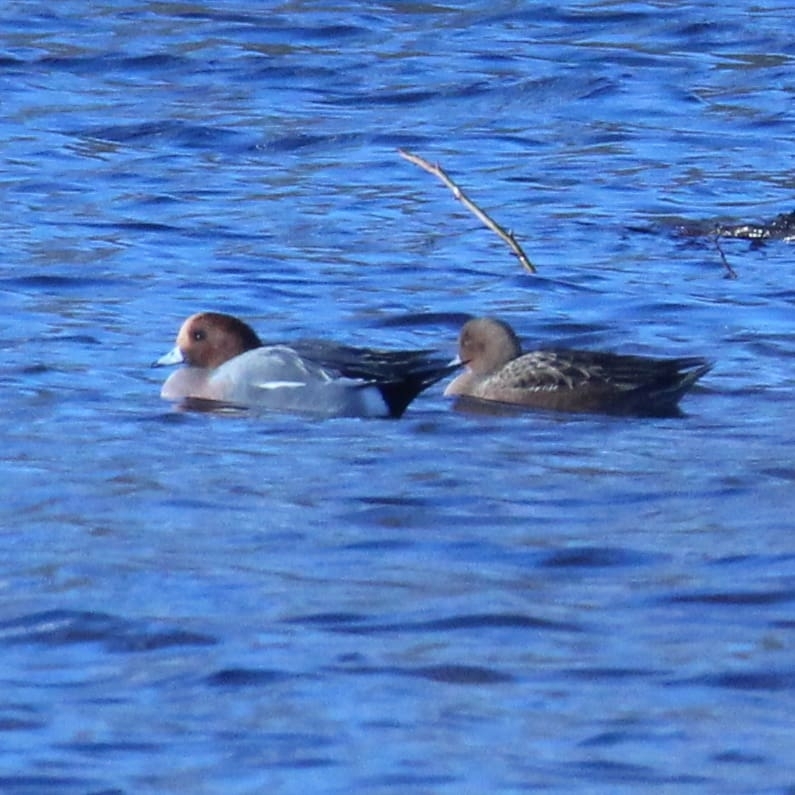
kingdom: Animalia
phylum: Chordata
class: Aves
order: Anseriformes
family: Anatidae
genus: Mareca
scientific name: Mareca penelope
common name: Eurasian wigeon
